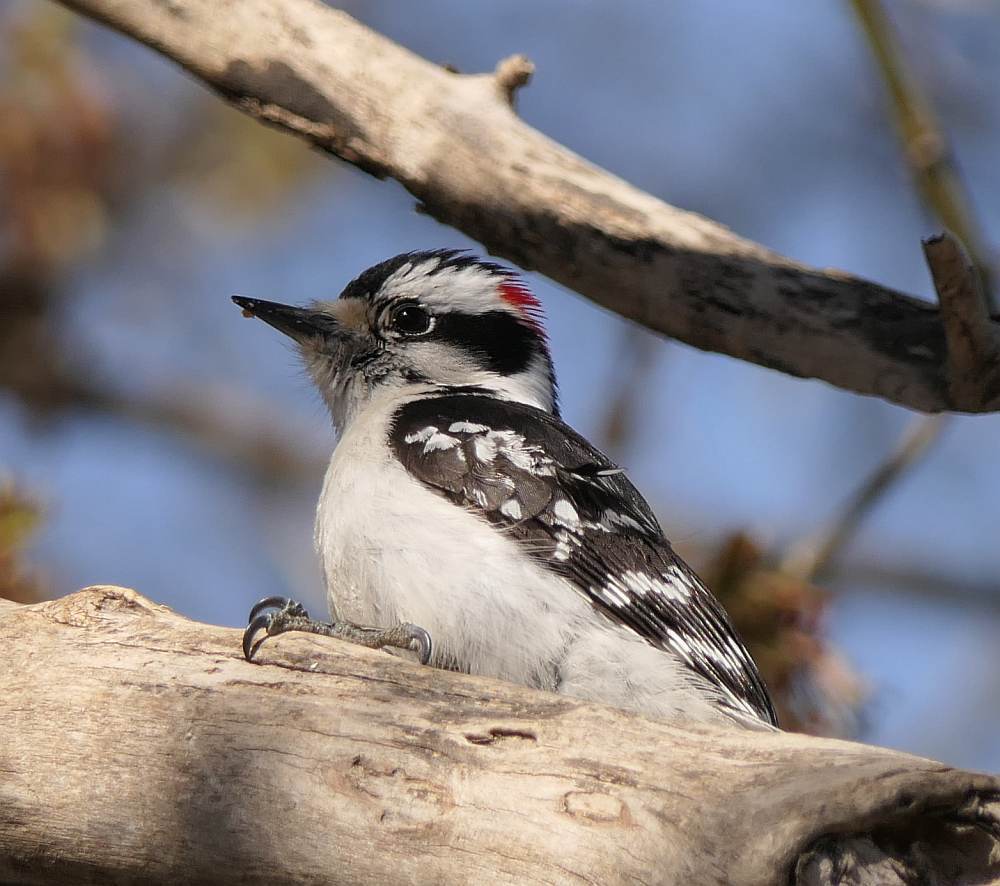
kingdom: Animalia
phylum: Chordata
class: Aves
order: Piciformes
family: Picidae
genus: Dryobates
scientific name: Dryobates pubescens
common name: Downy woodpecker
